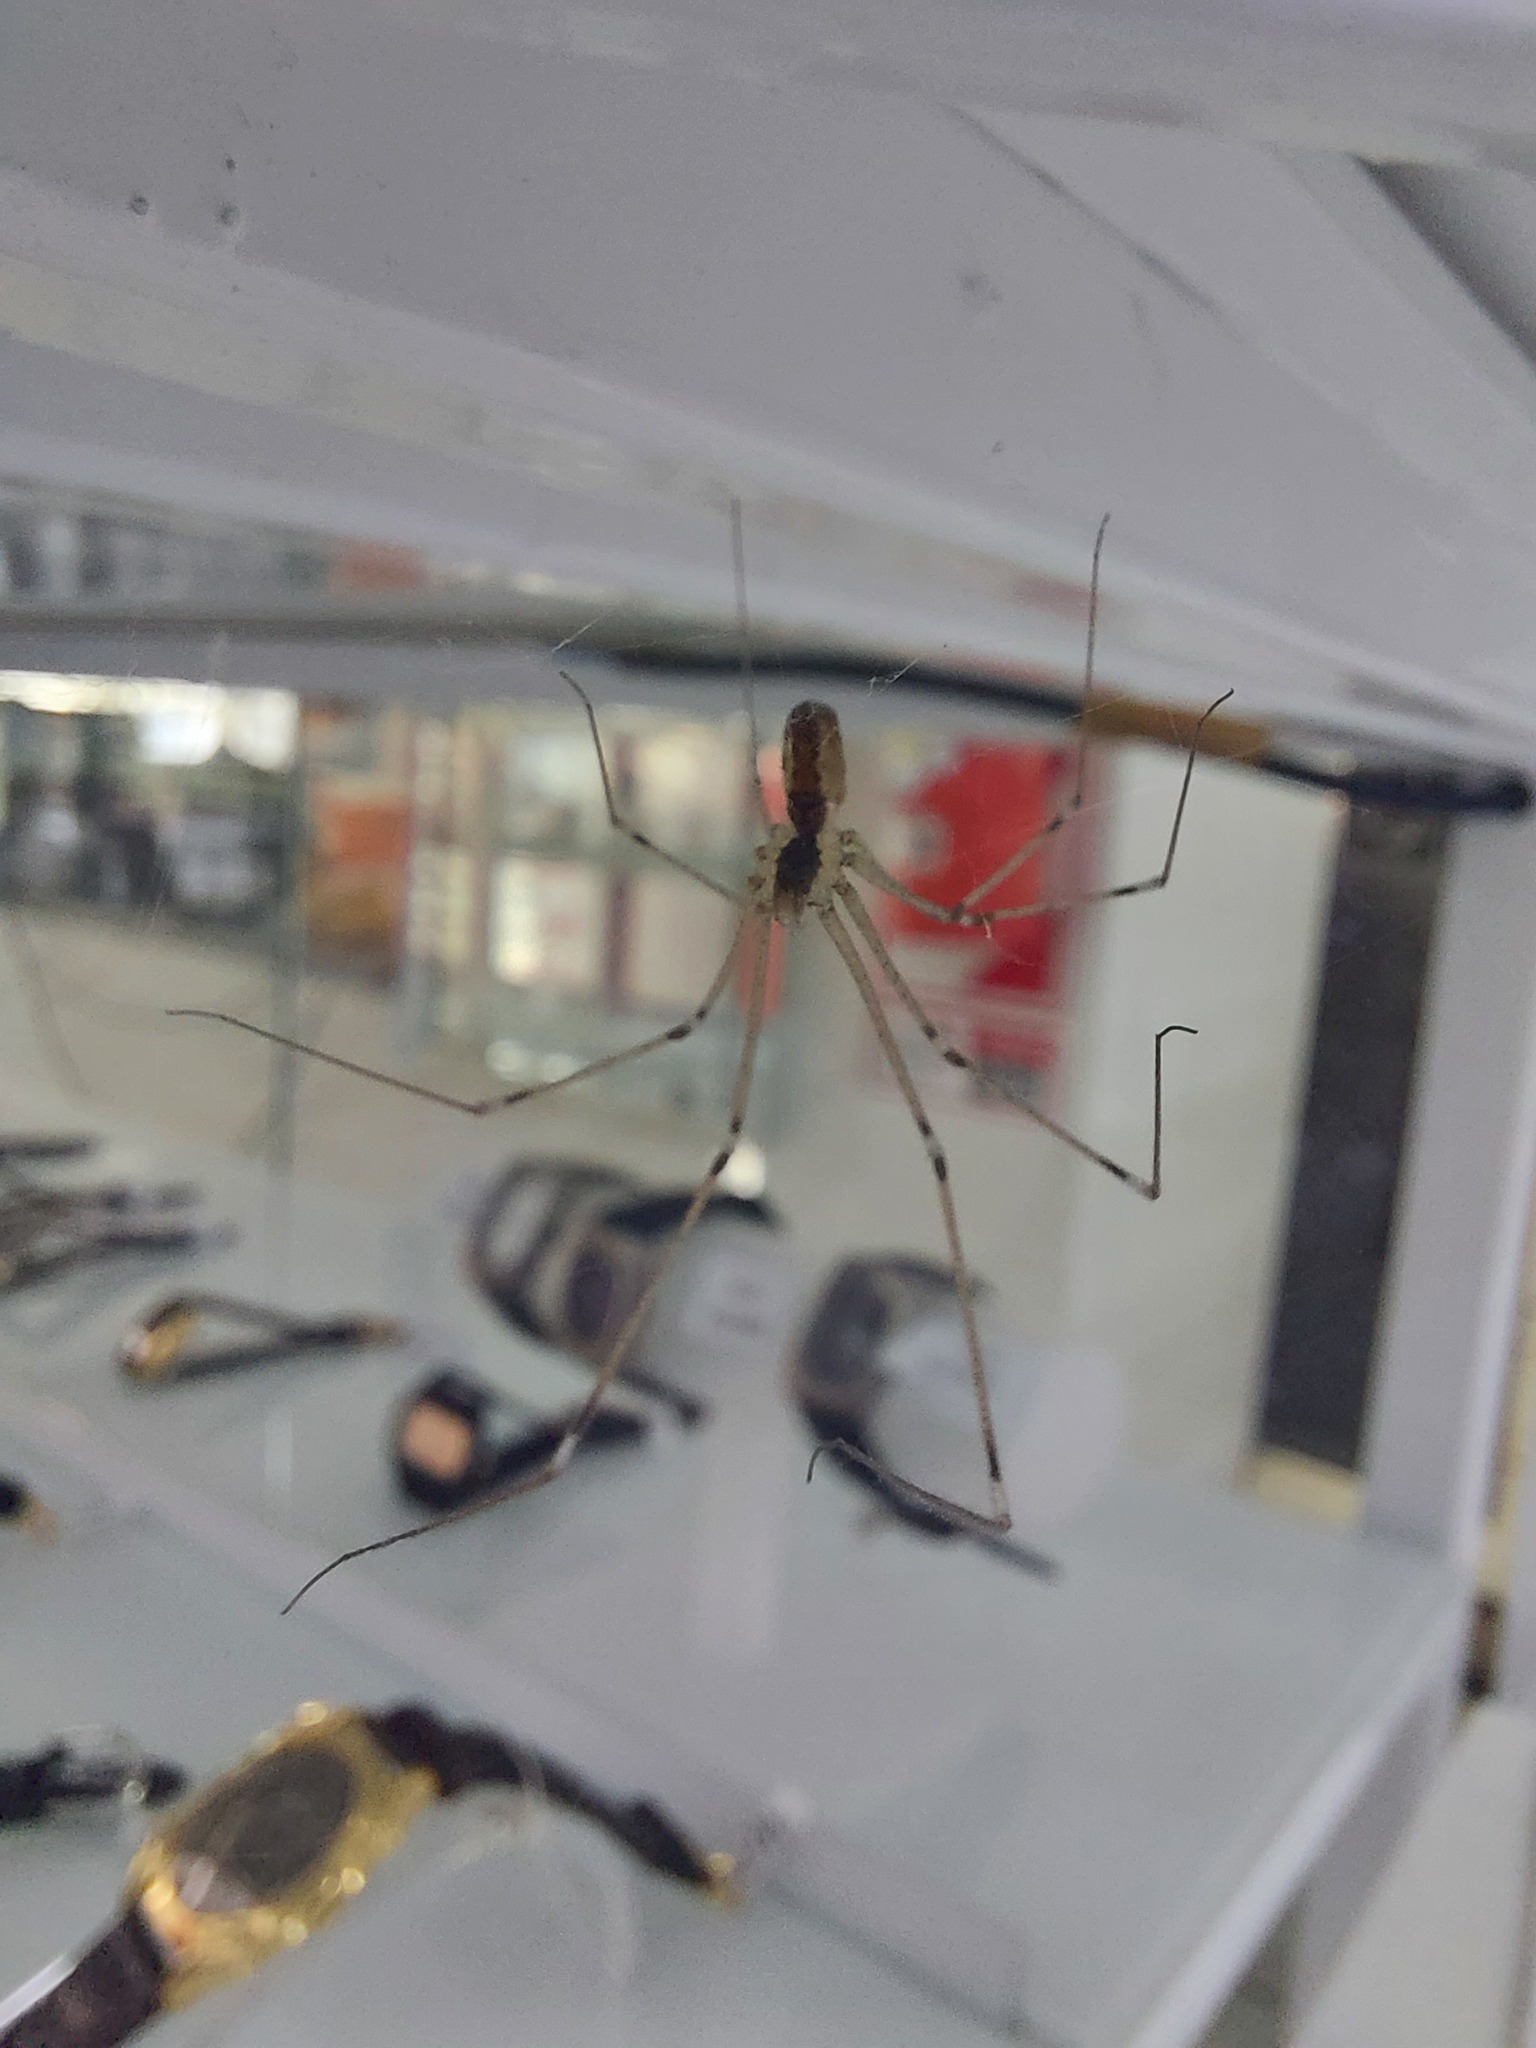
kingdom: Animalia
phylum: Arthropoda
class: Arachnida
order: Araneae
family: Pholcidae
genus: Holocnemus
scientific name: Holocnemus pluchei
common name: Marbled cellar spider
